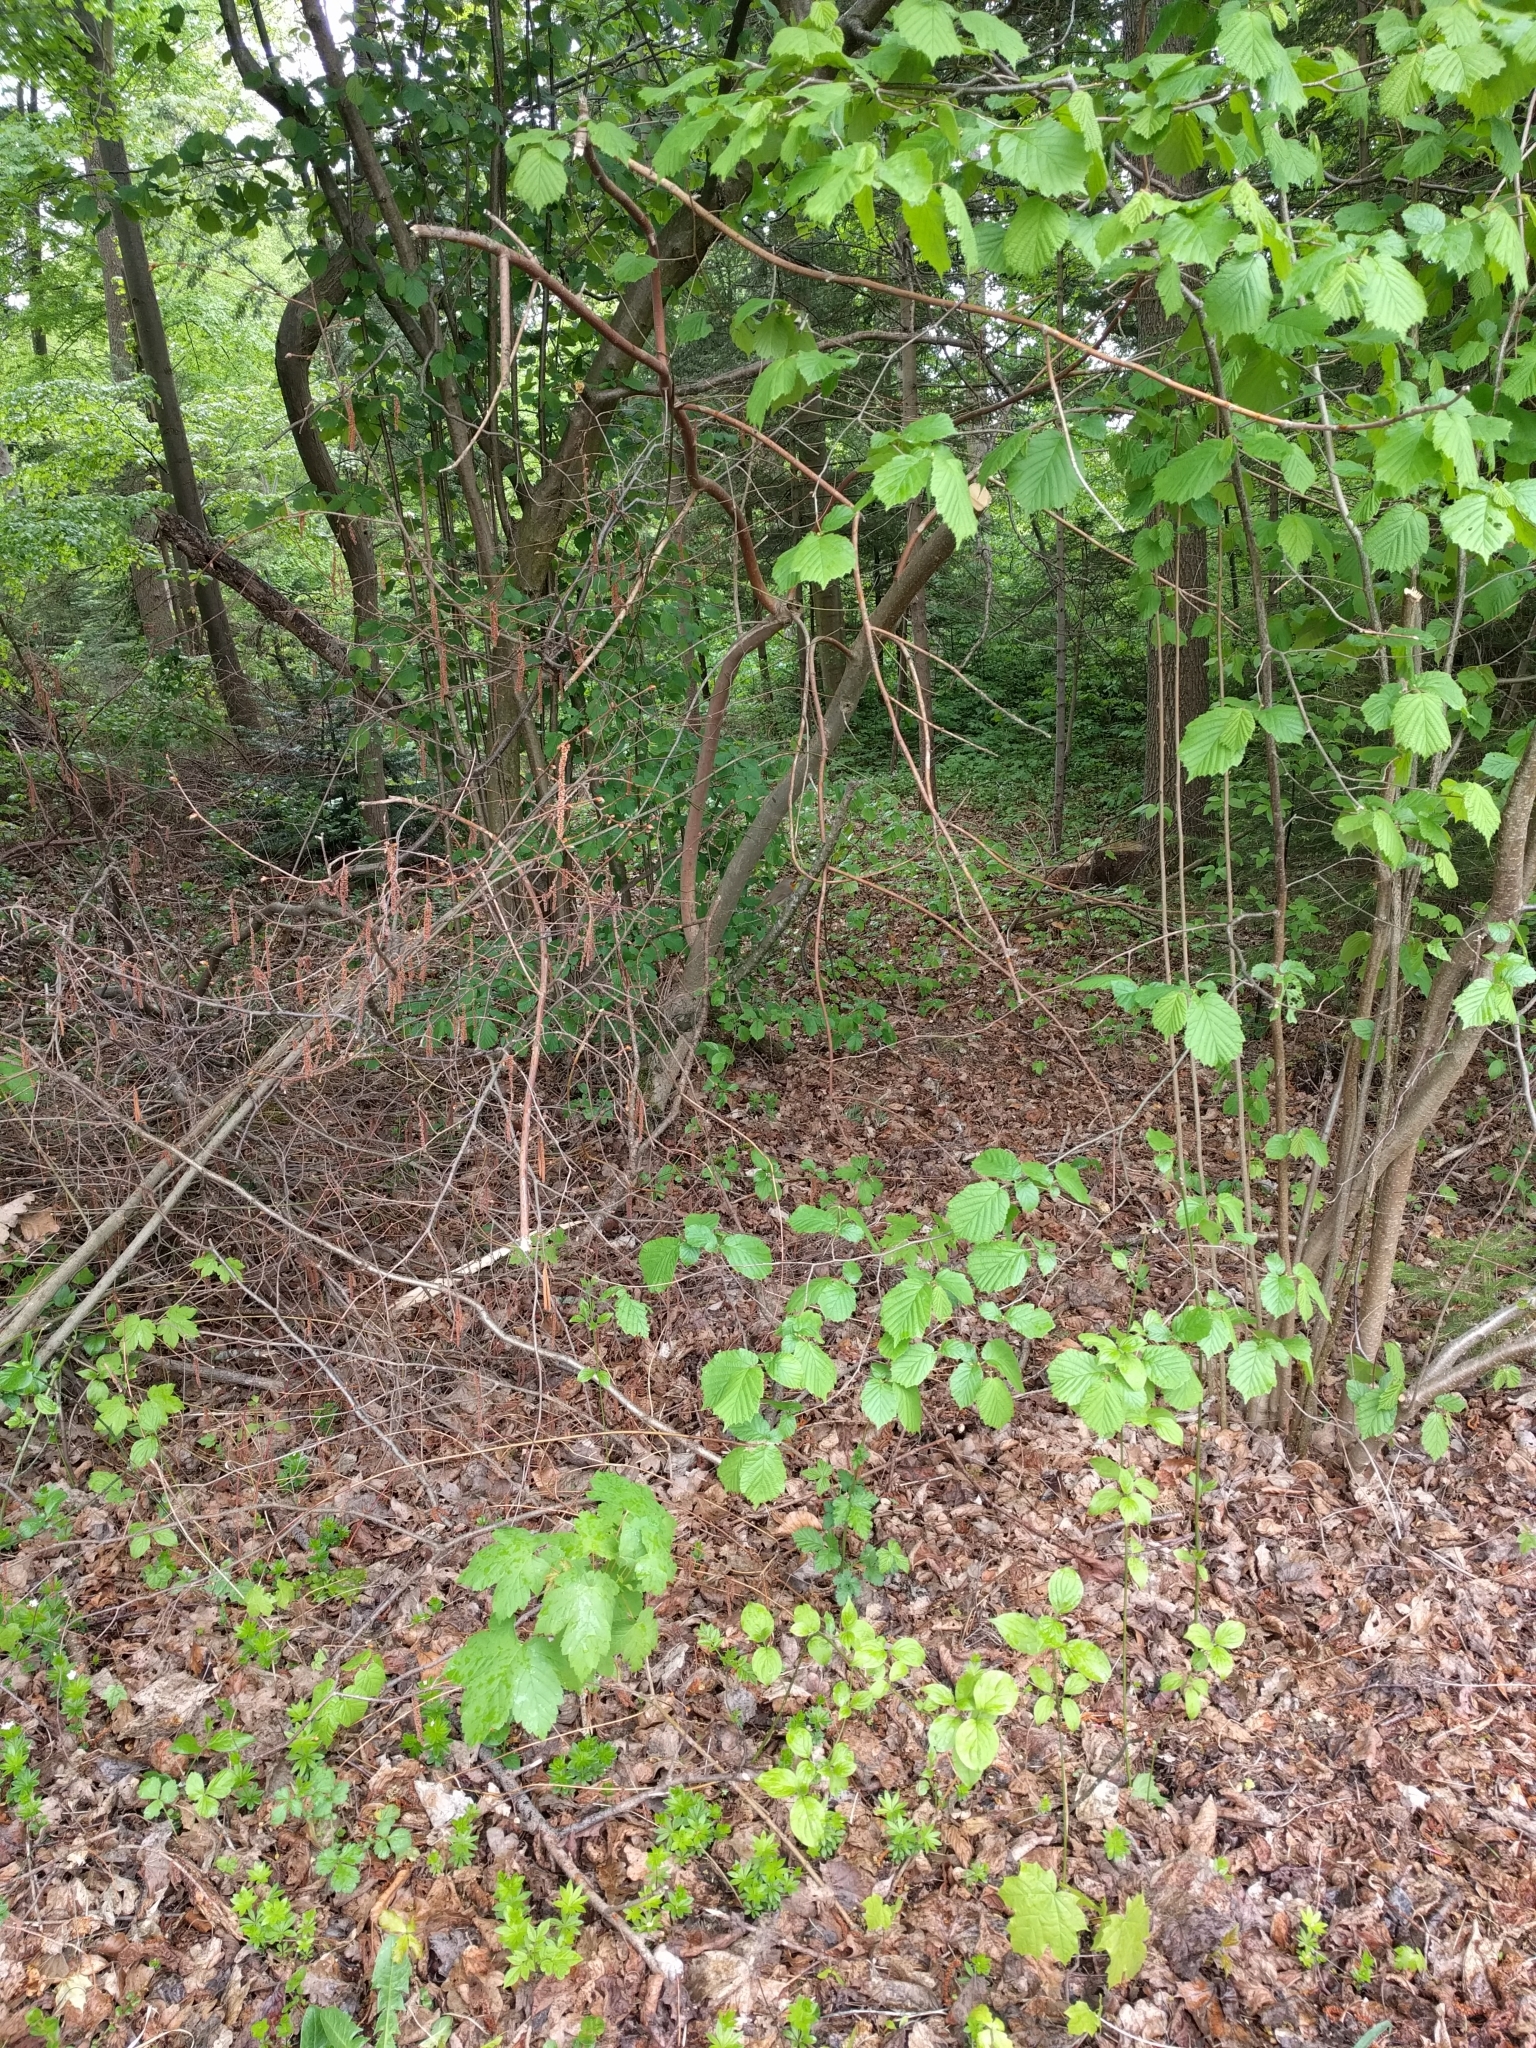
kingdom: Plantae
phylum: Tracheophyta
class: Magnoliopsida
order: Fagales
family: Betulaceae
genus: Corylus
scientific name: Corylus avellana
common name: European hazel
